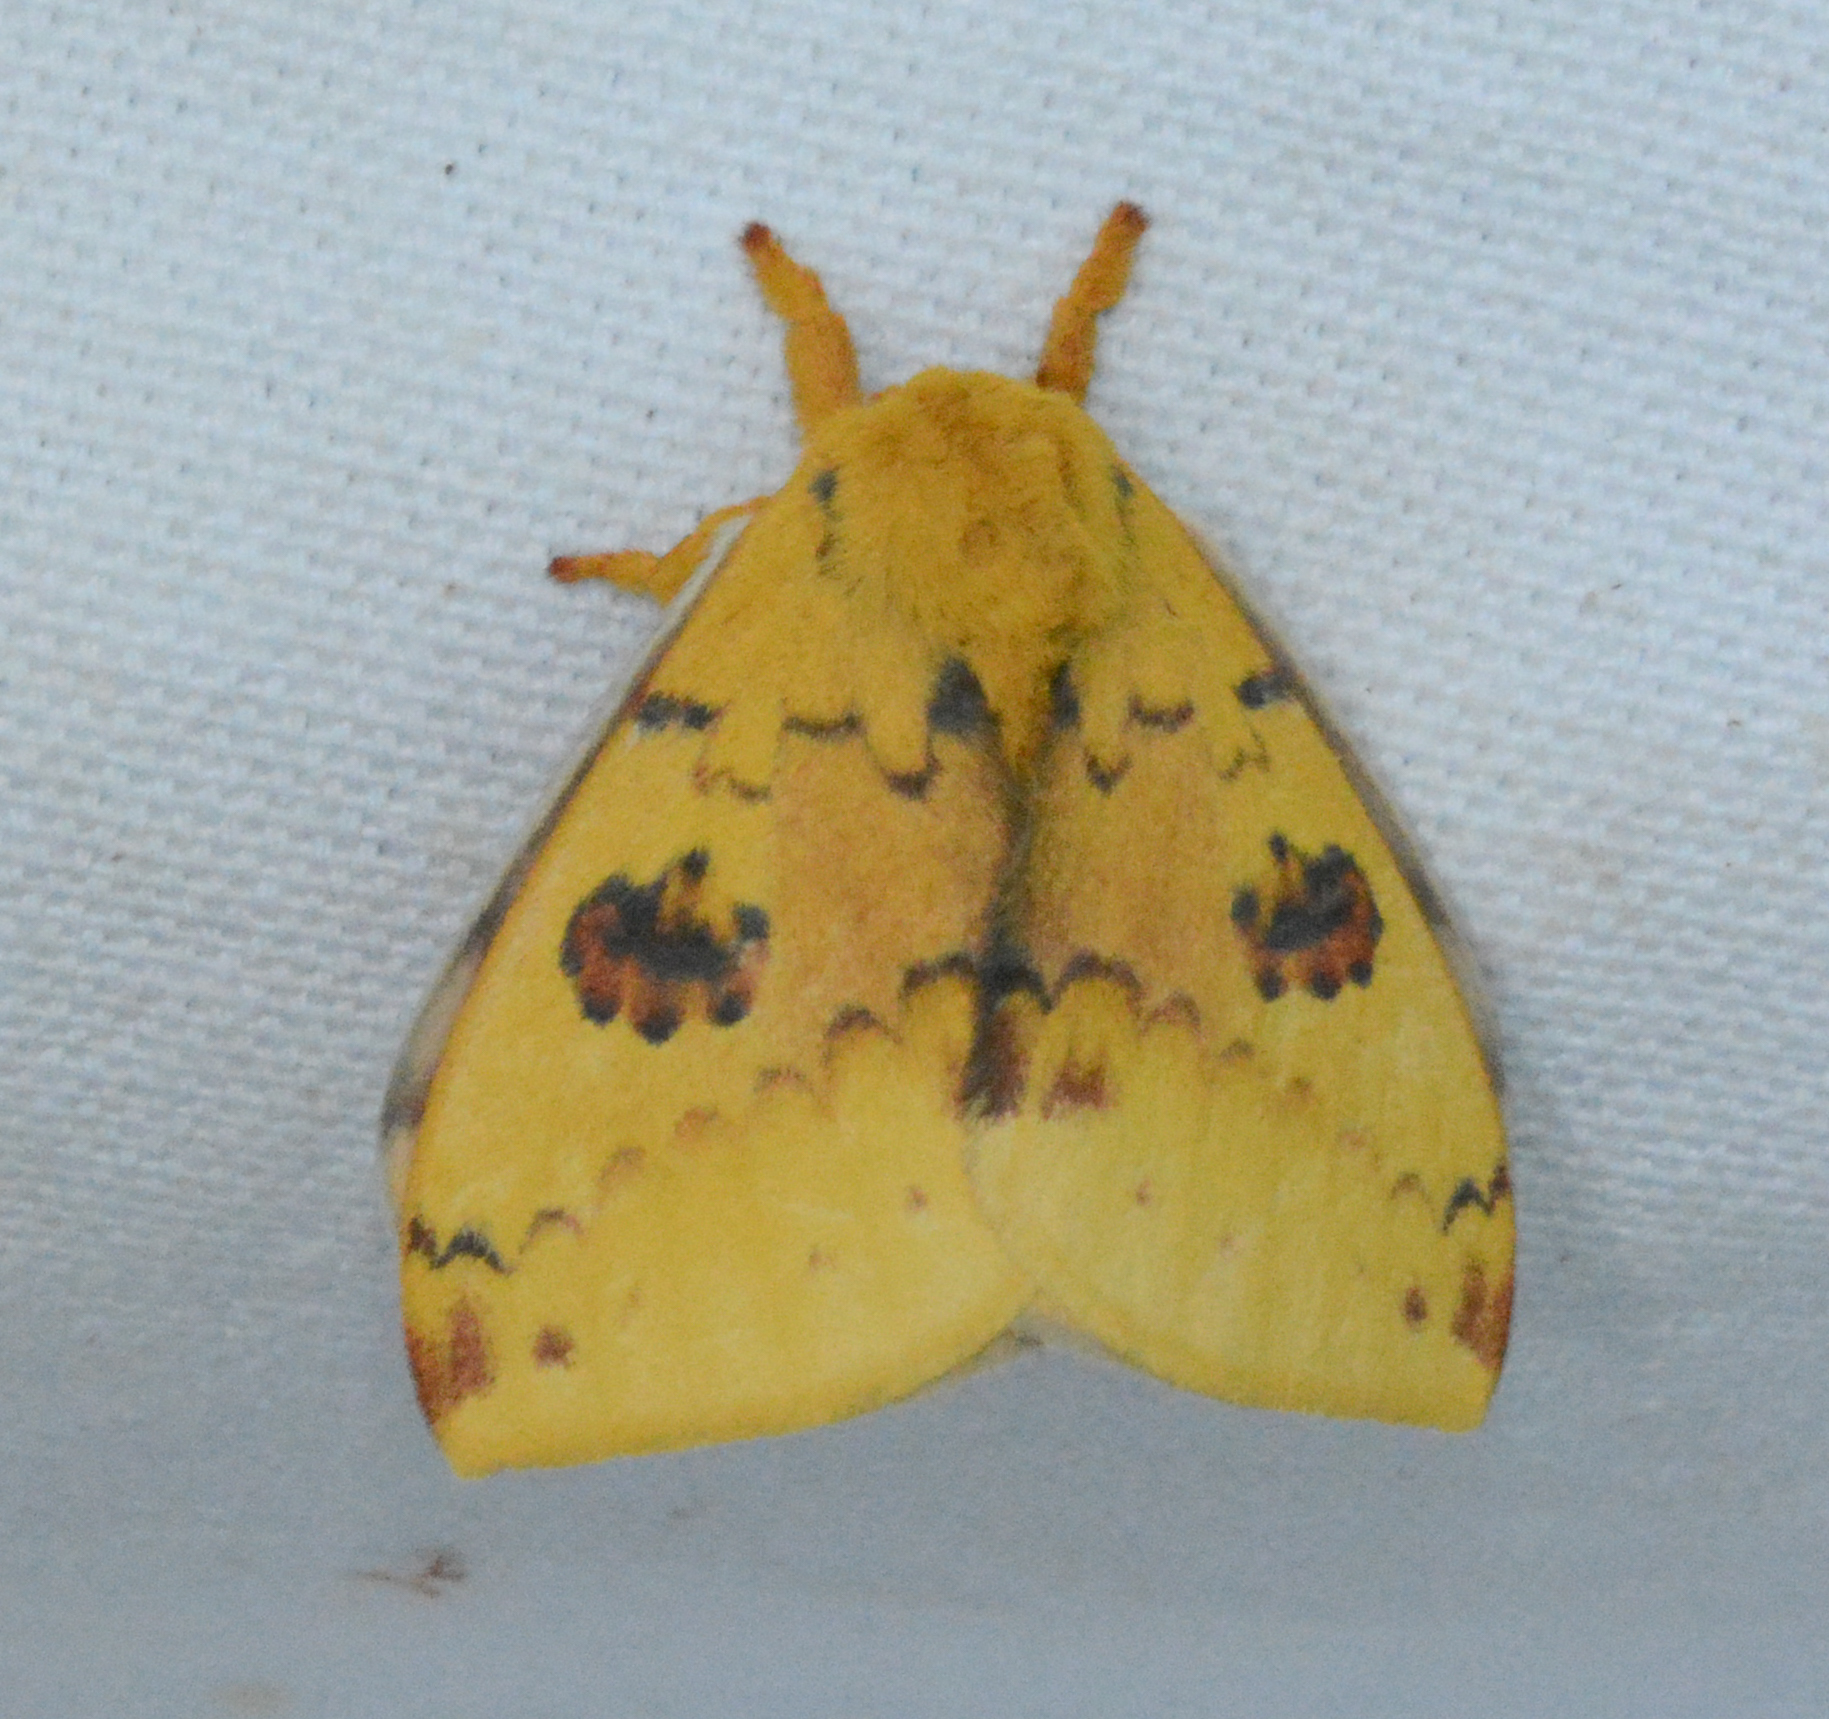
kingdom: Animalia
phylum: Arthropoda
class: Insecta
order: Lepidoptera
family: Saturniidae
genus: Automeris
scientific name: Automeris io
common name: Io moth
